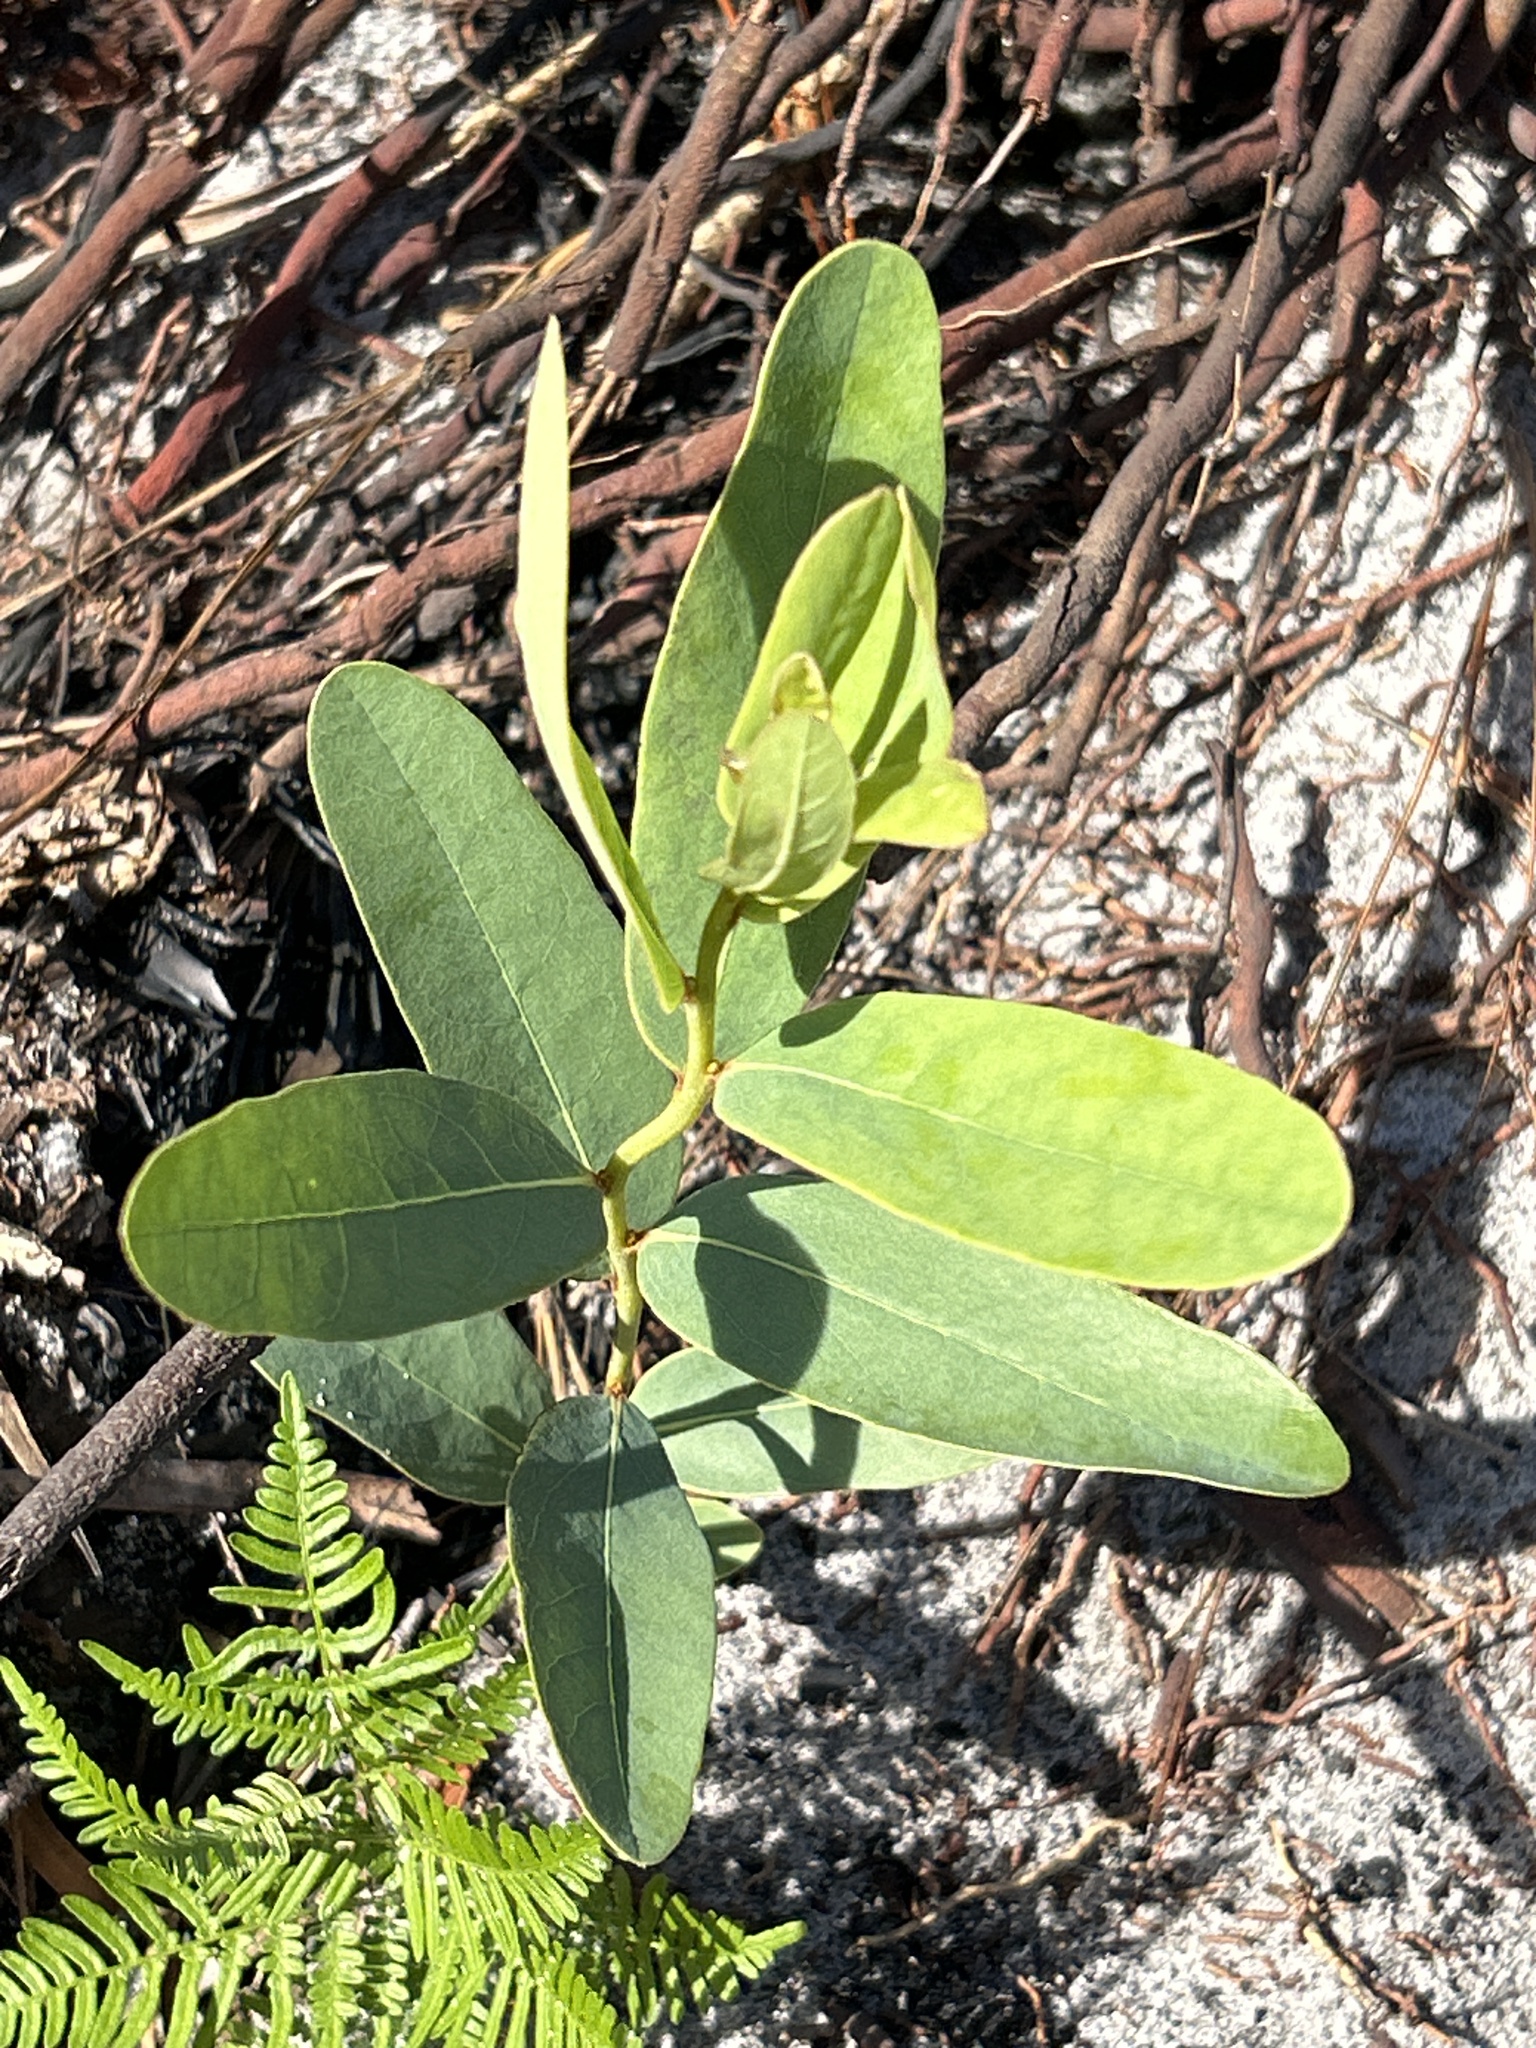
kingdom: Plantae
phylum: Tracheophyta
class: Magnoliopsida
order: Magnoliales
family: Annonaceae
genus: Asimina
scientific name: Asimina reticulata
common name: Flag pawpaw
